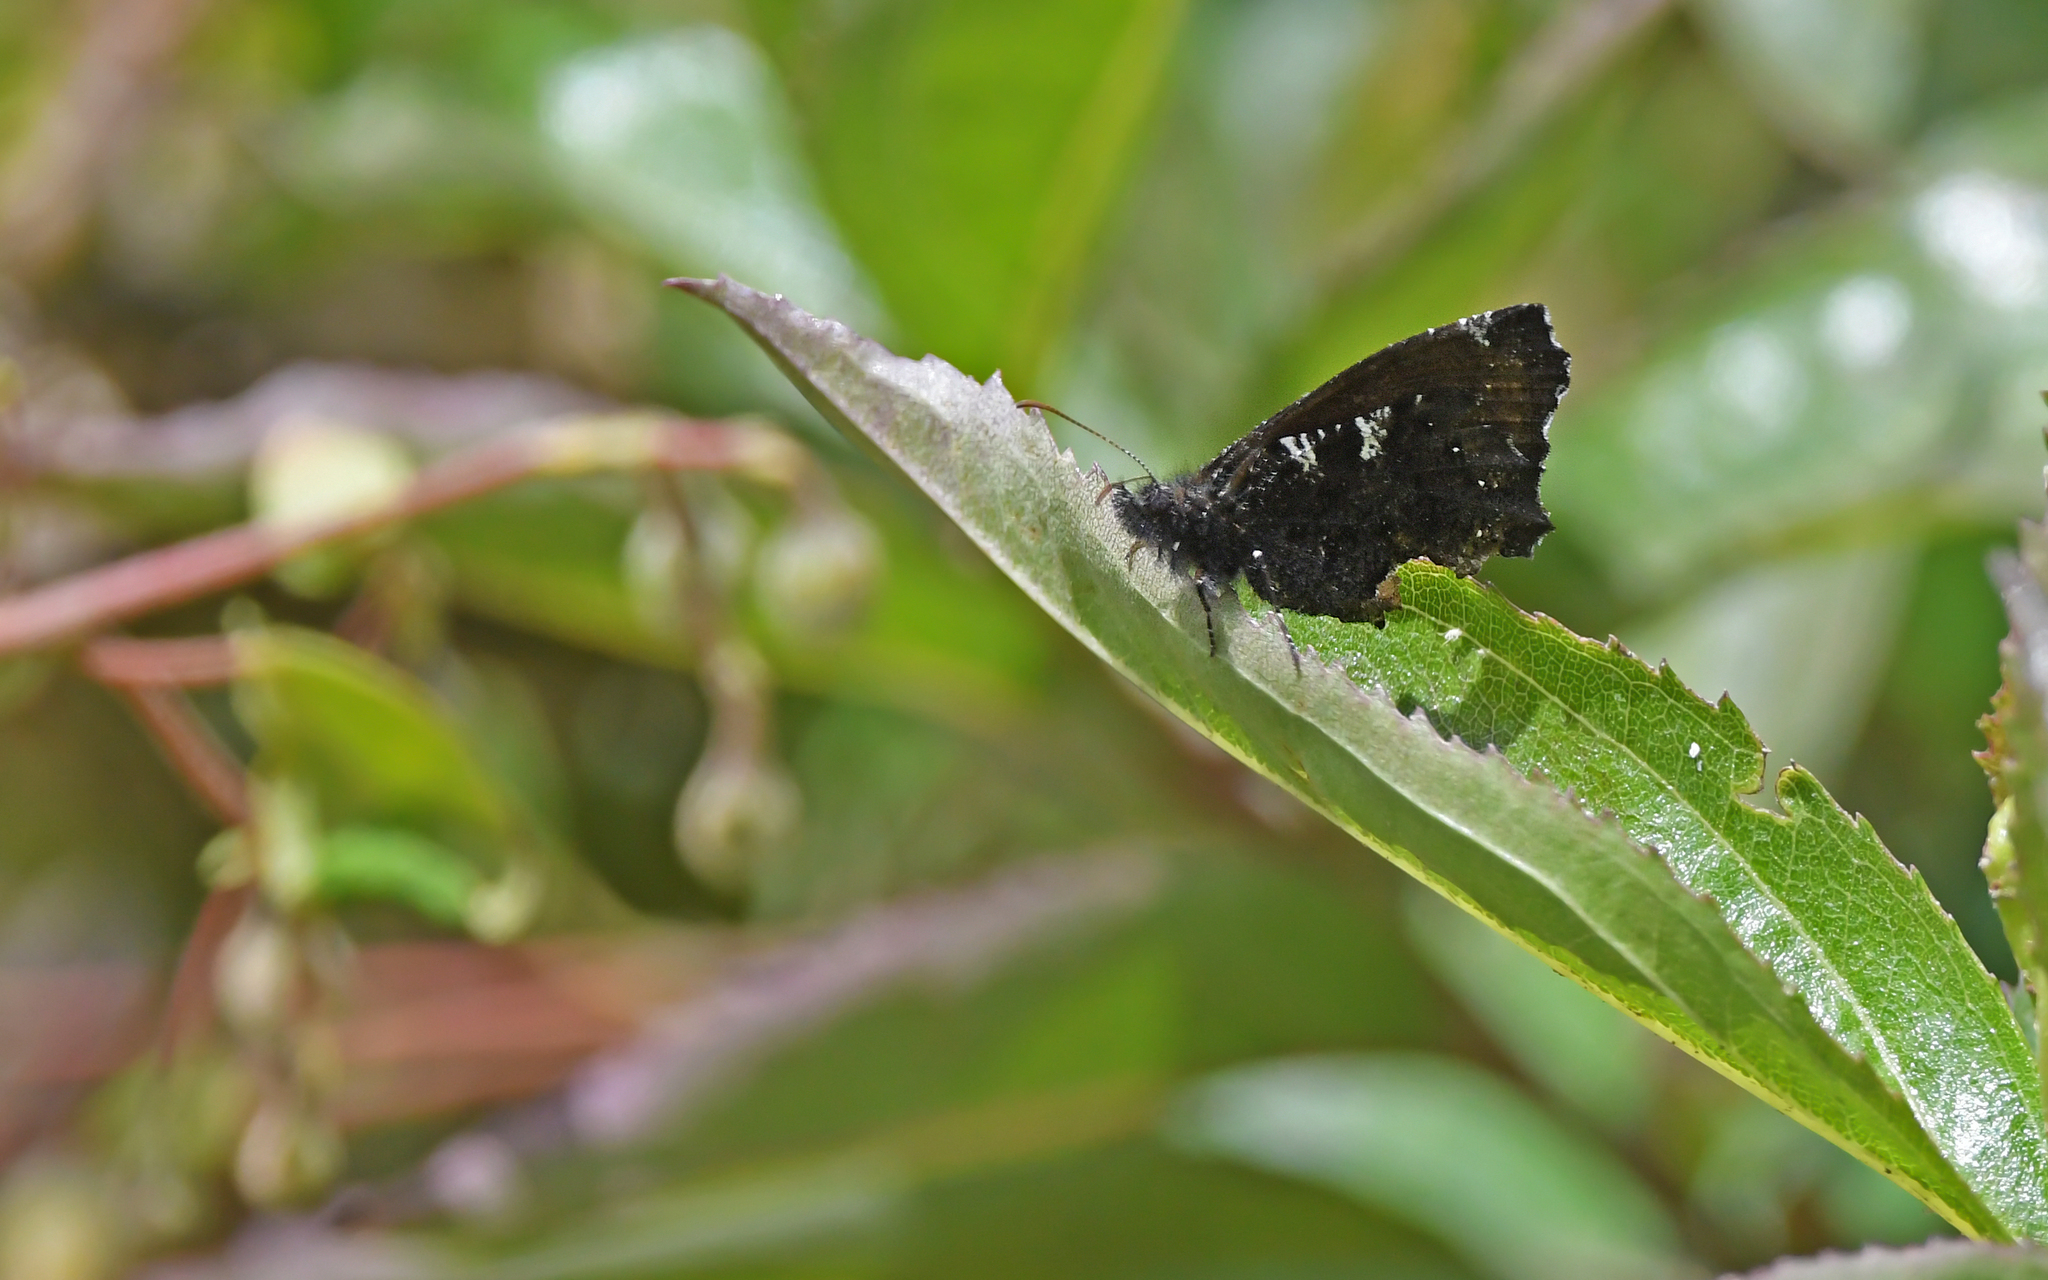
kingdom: Animalia
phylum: Arthropoda
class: Insecta
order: Lepidoptera
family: Nymphalidae
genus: Steremnia
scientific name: Steremnia monachella
